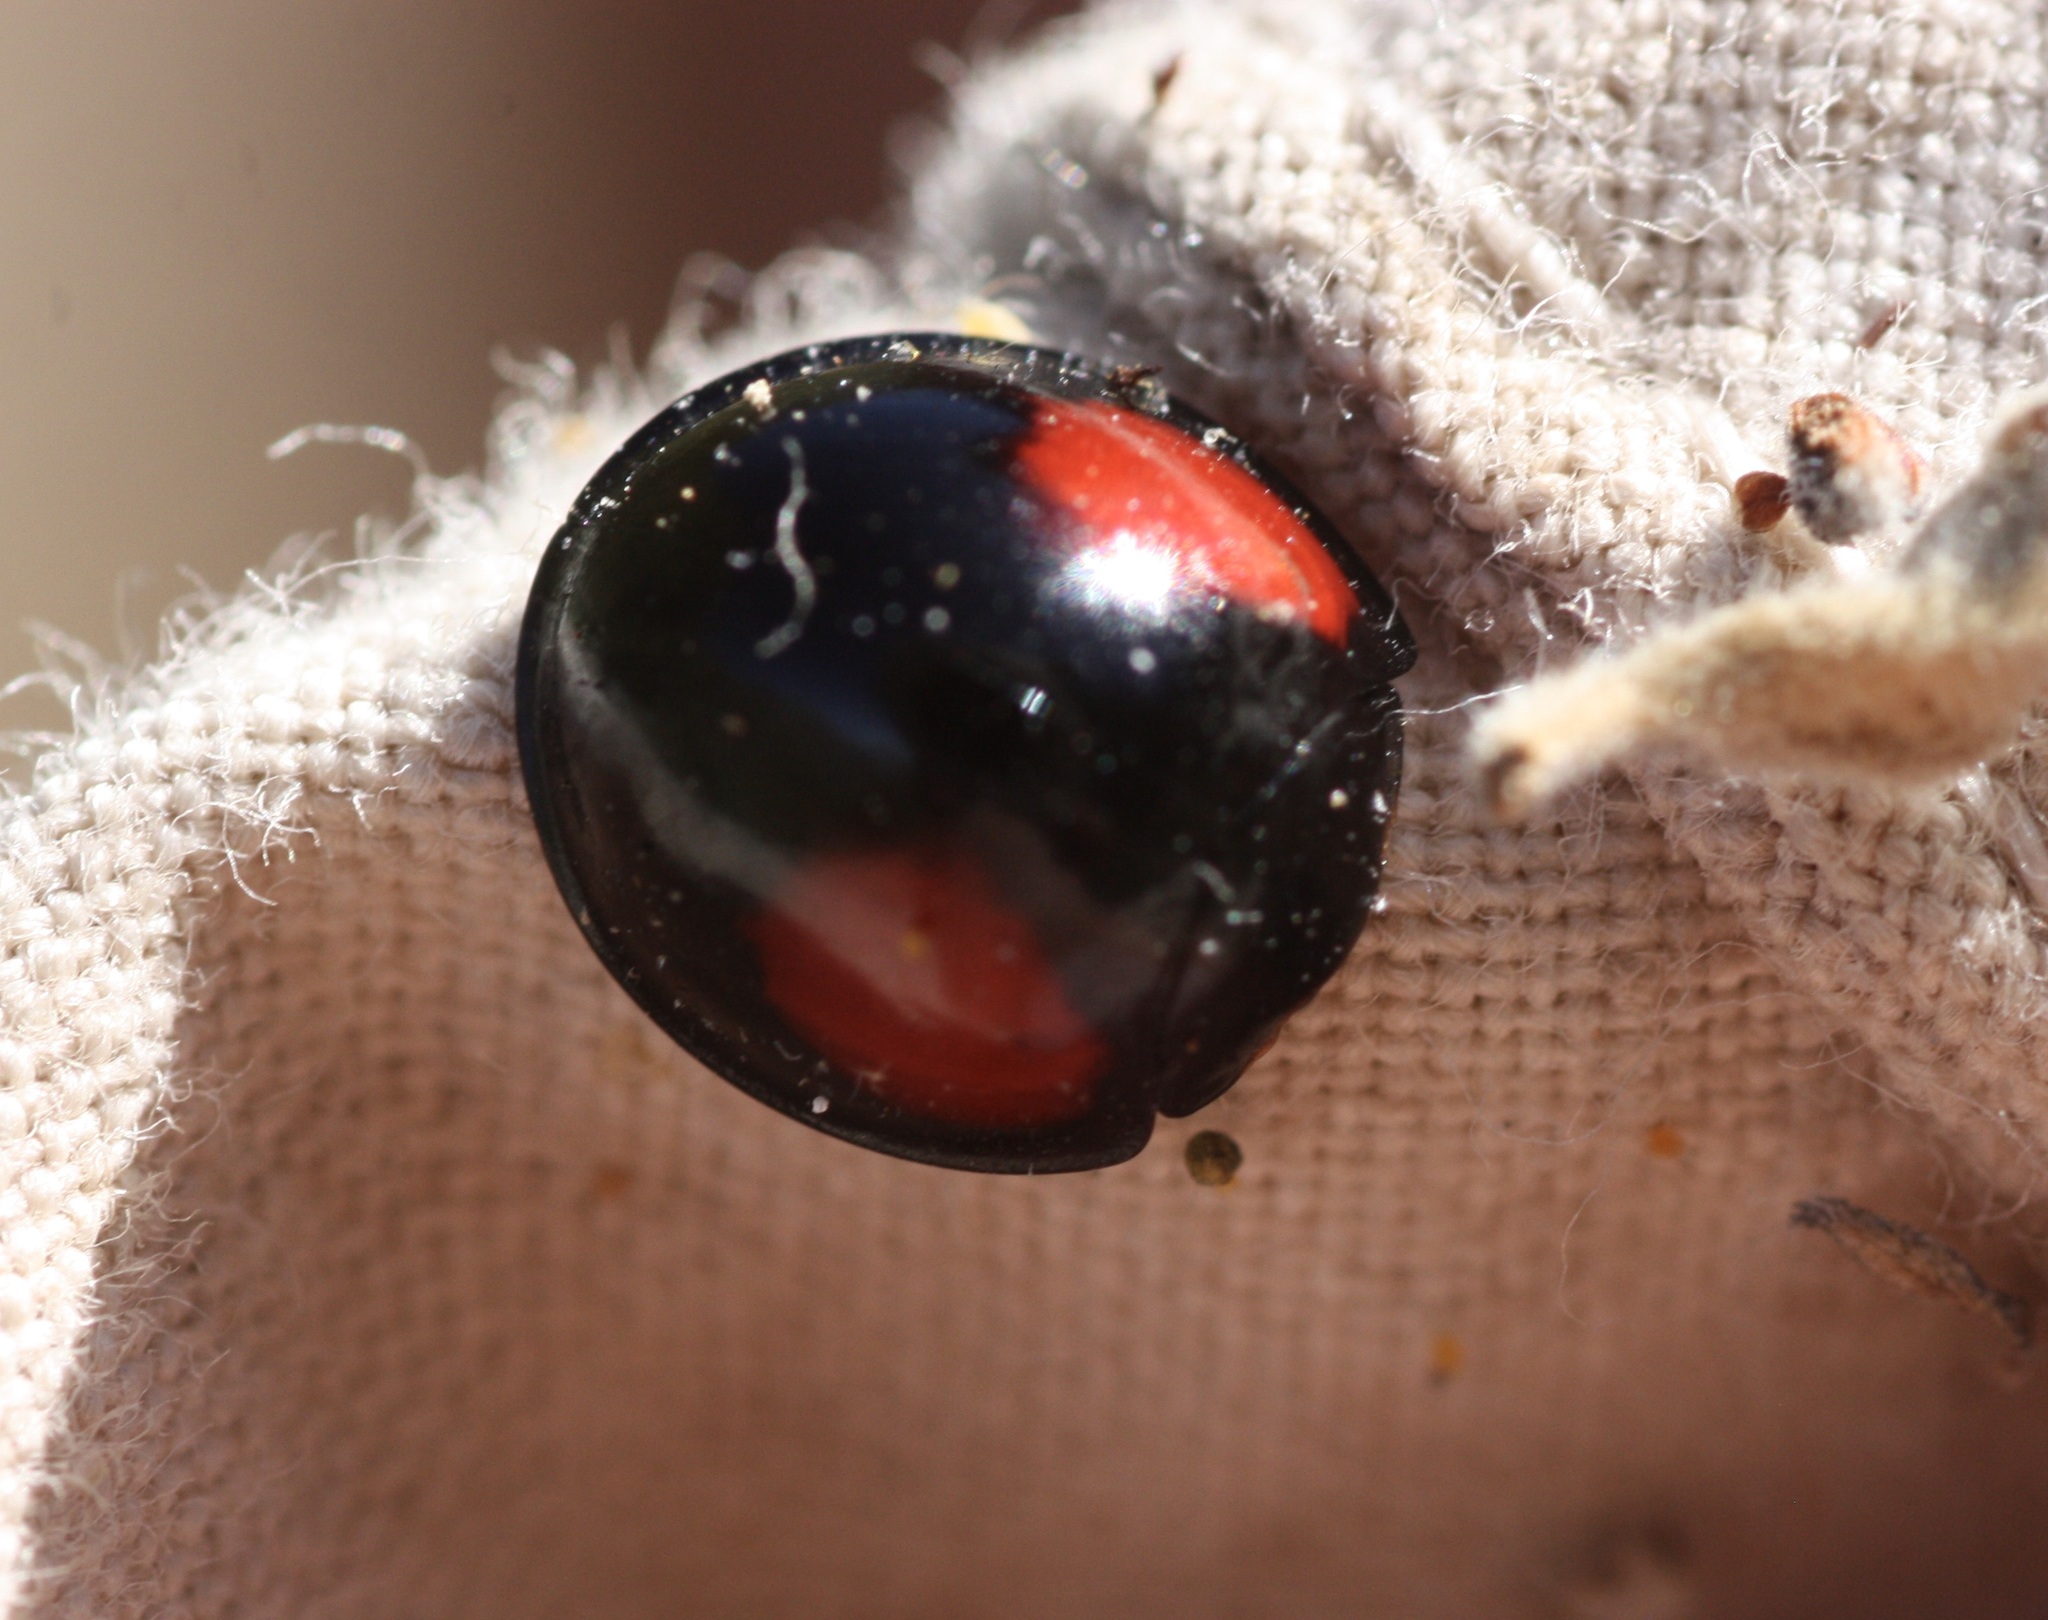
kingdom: Animalia
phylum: Arthropoda
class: Insecta
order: Coleoptera
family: Coccinellidae
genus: Axion
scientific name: Axion plagiatum
